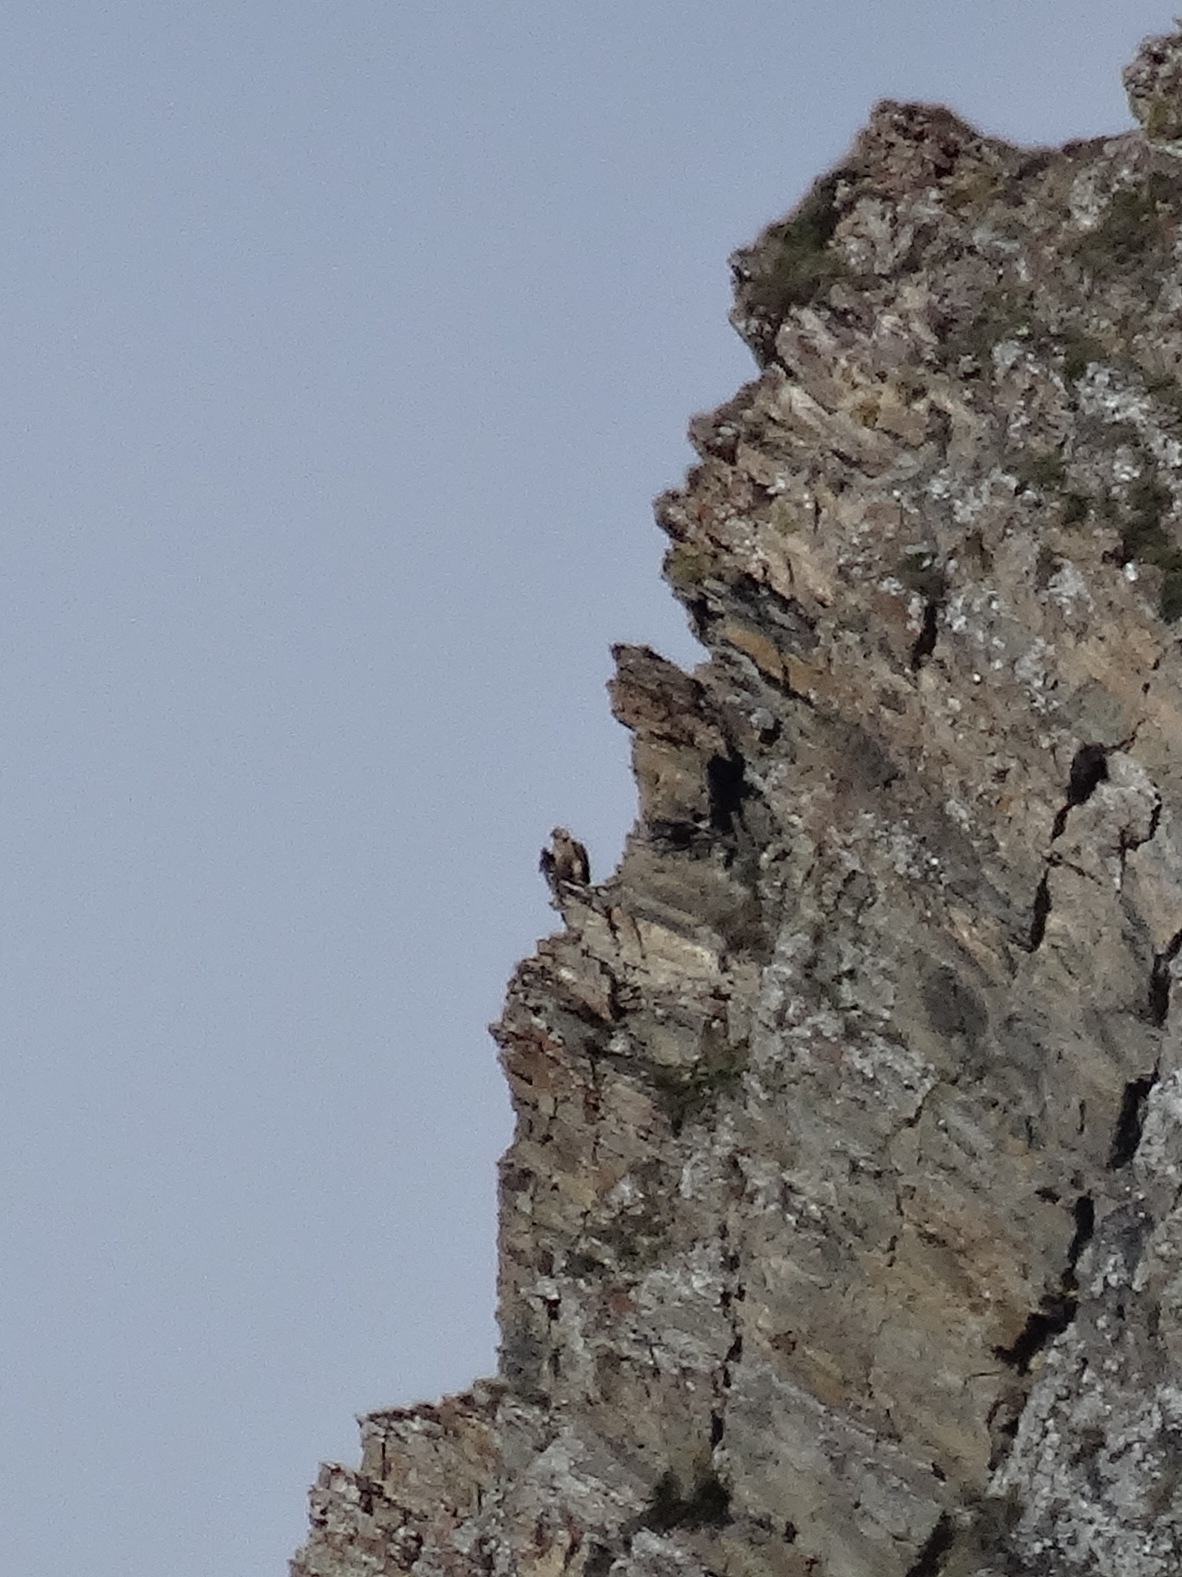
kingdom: Animalia
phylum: Chordata
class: Aves
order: Accipitriformes
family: Accipitridae
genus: Gypaetus
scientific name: Gypaetus barbatus
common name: Bearded vulture
